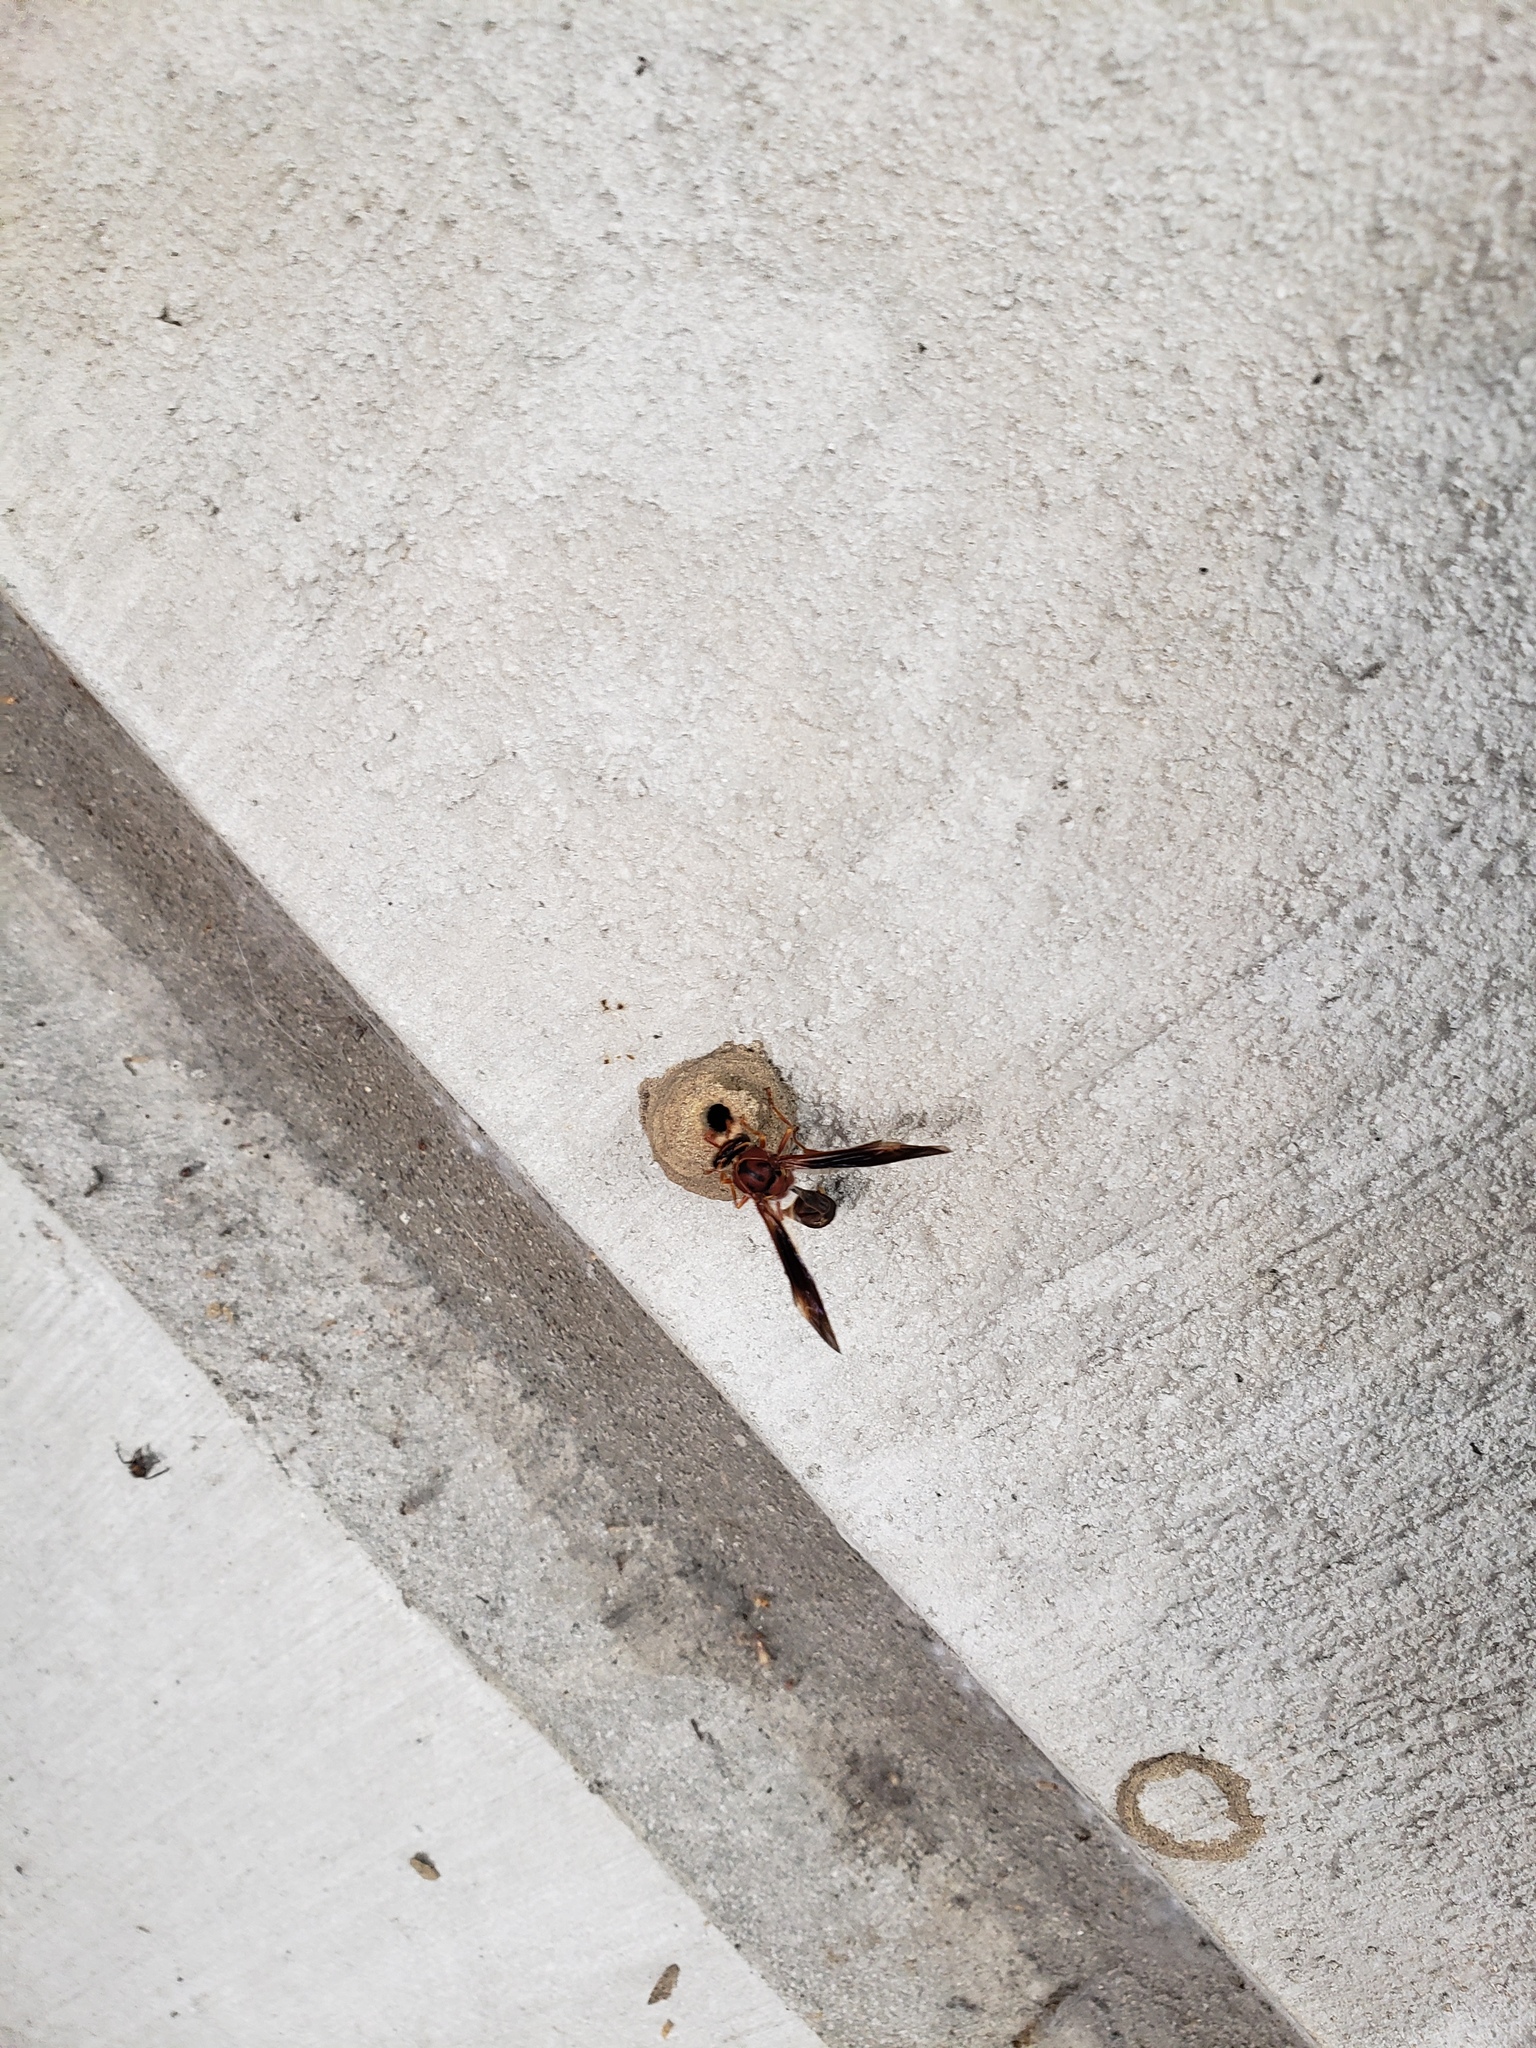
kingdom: Animalia
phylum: Arthropoda
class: Insecta
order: Hymenoptera
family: Eumenidae
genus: Zeta
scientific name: Zeta argillaceum
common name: Potter wasp
